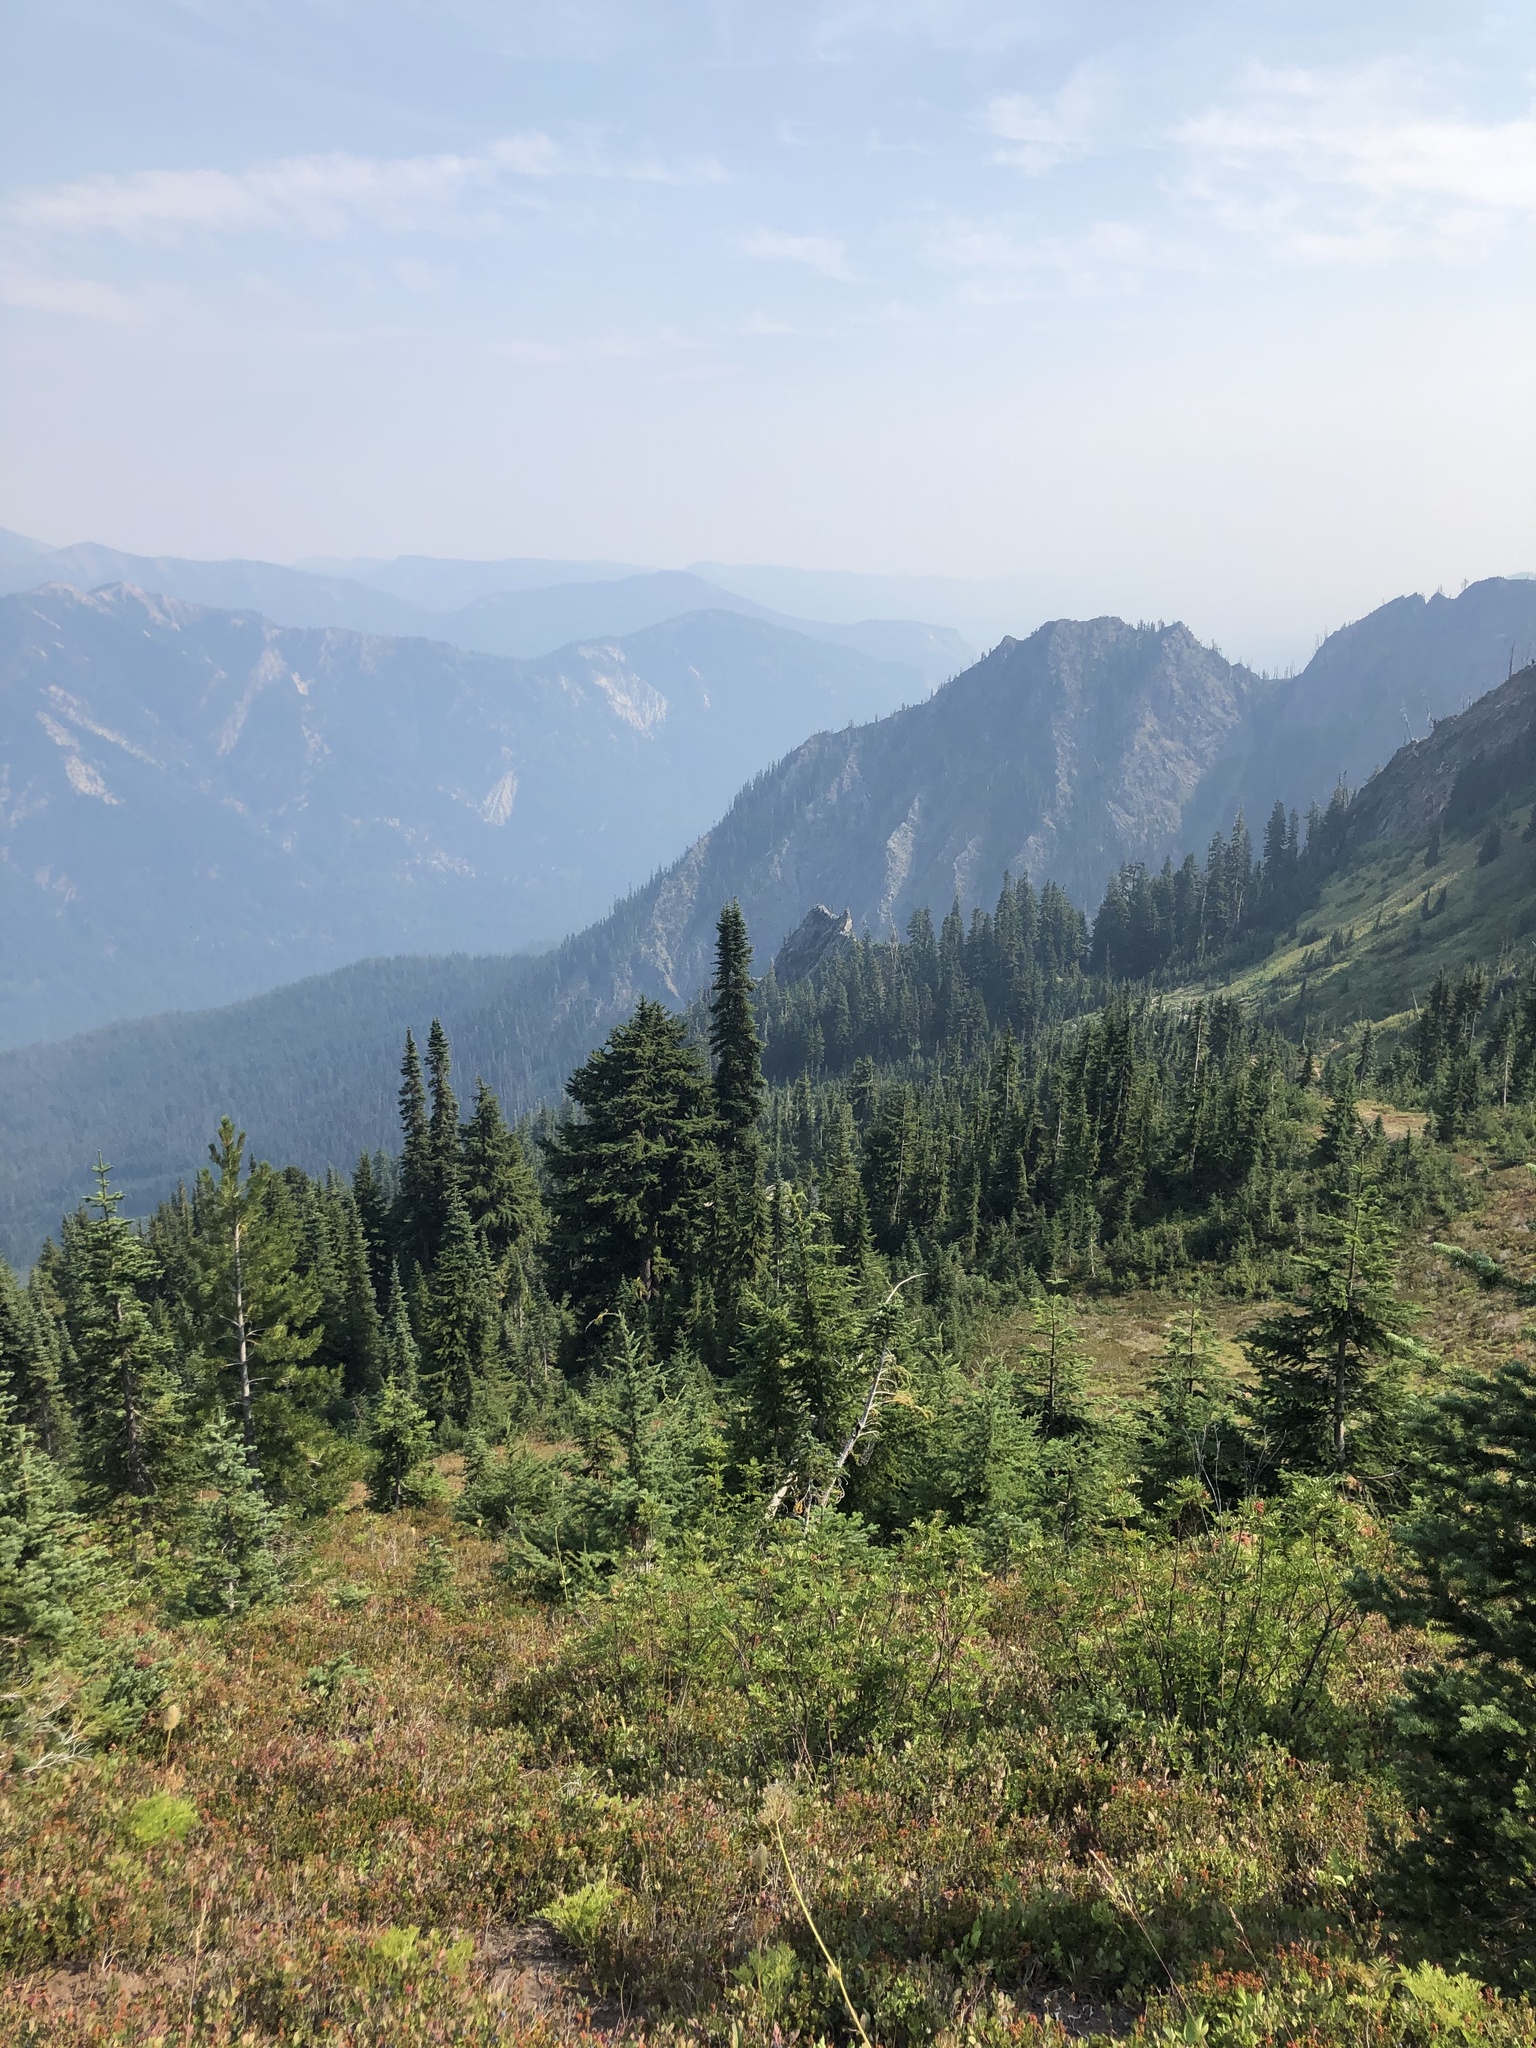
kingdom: Plantae
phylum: Tracheophyta
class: Pinopsida
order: Pinales
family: Pinaceae
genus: Pinus
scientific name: Pinus albicaulis
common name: Whitebark pine
